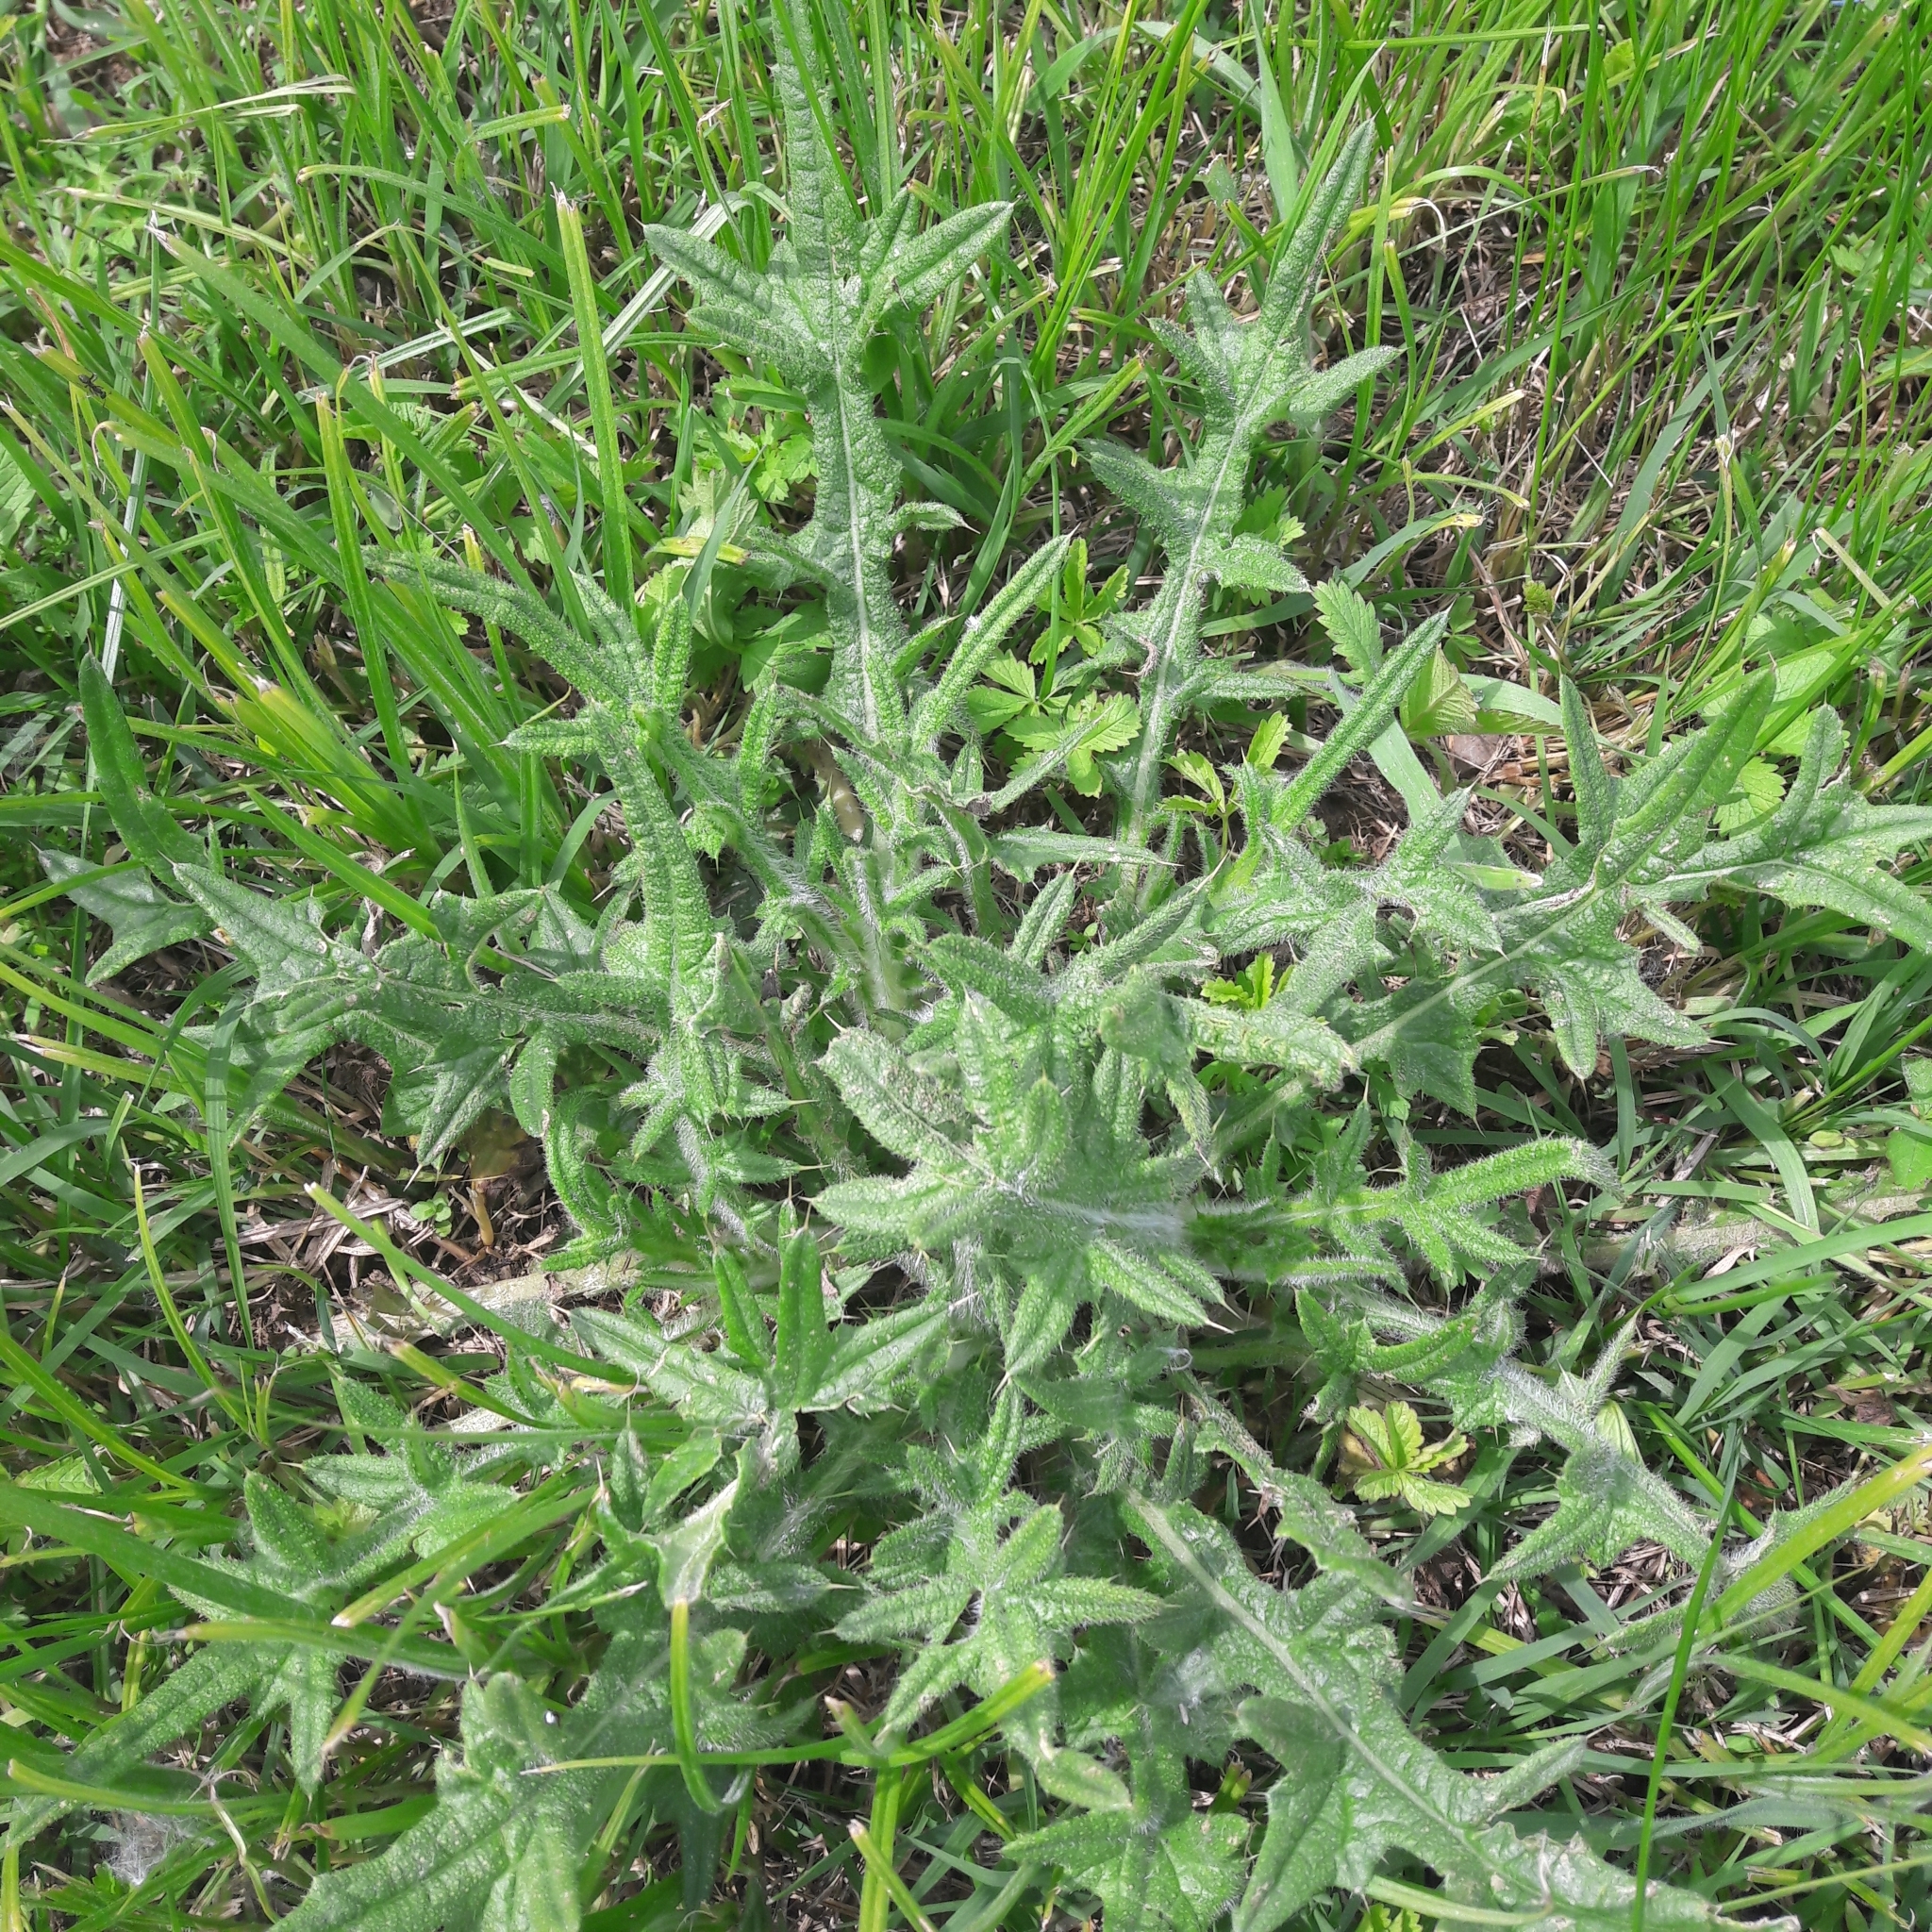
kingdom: Plantae
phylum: Tracheophyta
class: Magnoliopsida
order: Asterales
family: Asteraceae
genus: Cirsium
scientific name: Cirsium vulgare
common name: Bull thistle
